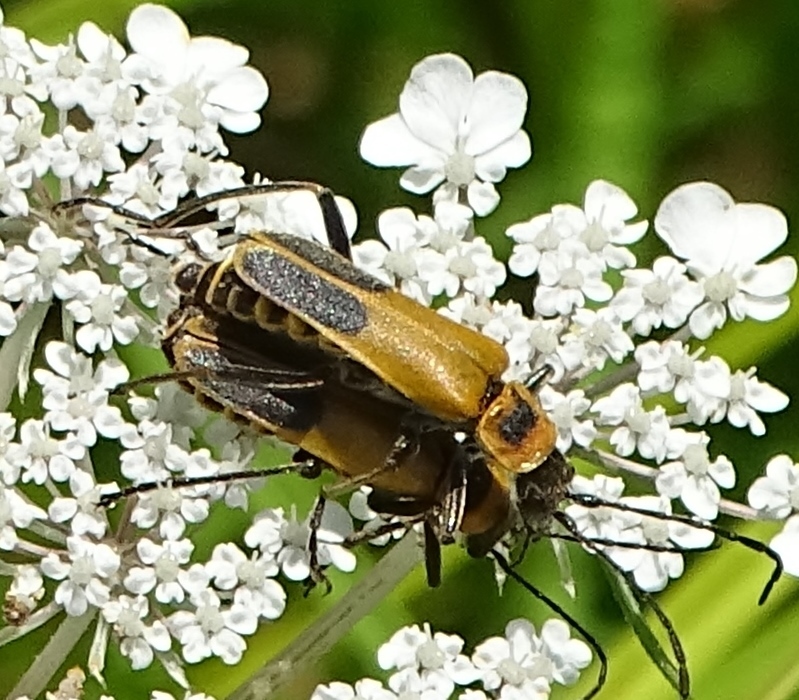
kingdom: Animalia
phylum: Arthropoda
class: Insecta
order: Coleoptera
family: Cantharidae
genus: Chauliognathus
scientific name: Chauliognathus pensylvanicus
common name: Goldenrod soldier beetle
